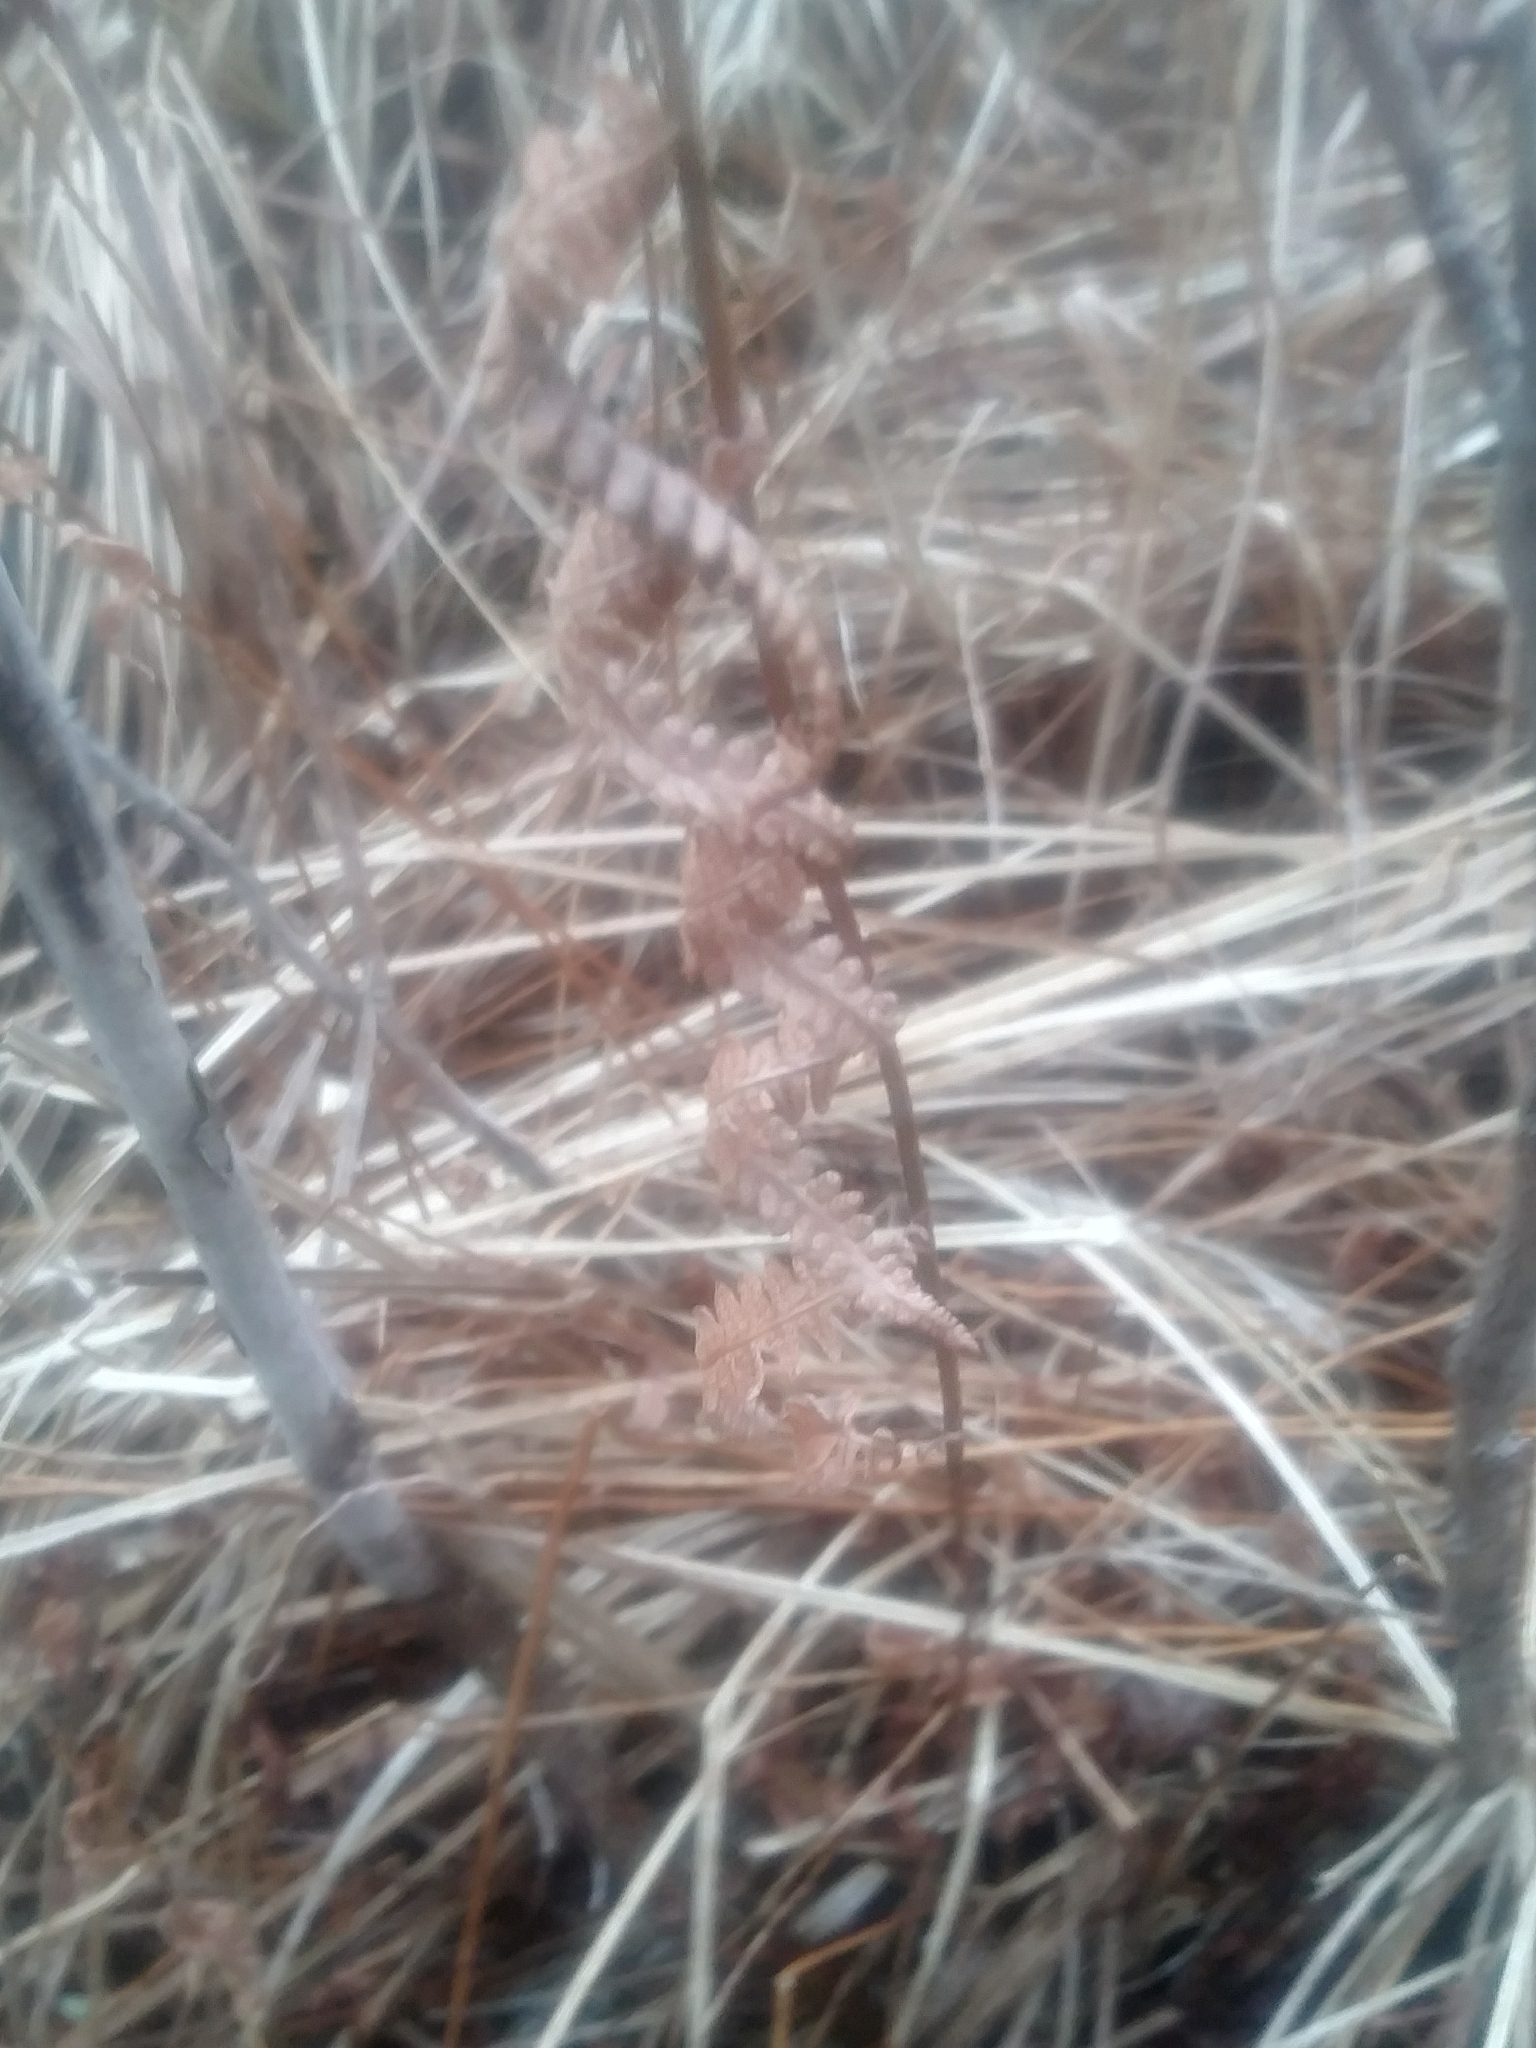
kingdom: Plantae
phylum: Tracheophyta
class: Polypodiopsida
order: Polypodiales
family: Thelypteridaceae
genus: Thelypteris
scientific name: Thelypteris palustris
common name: Marsh fern
